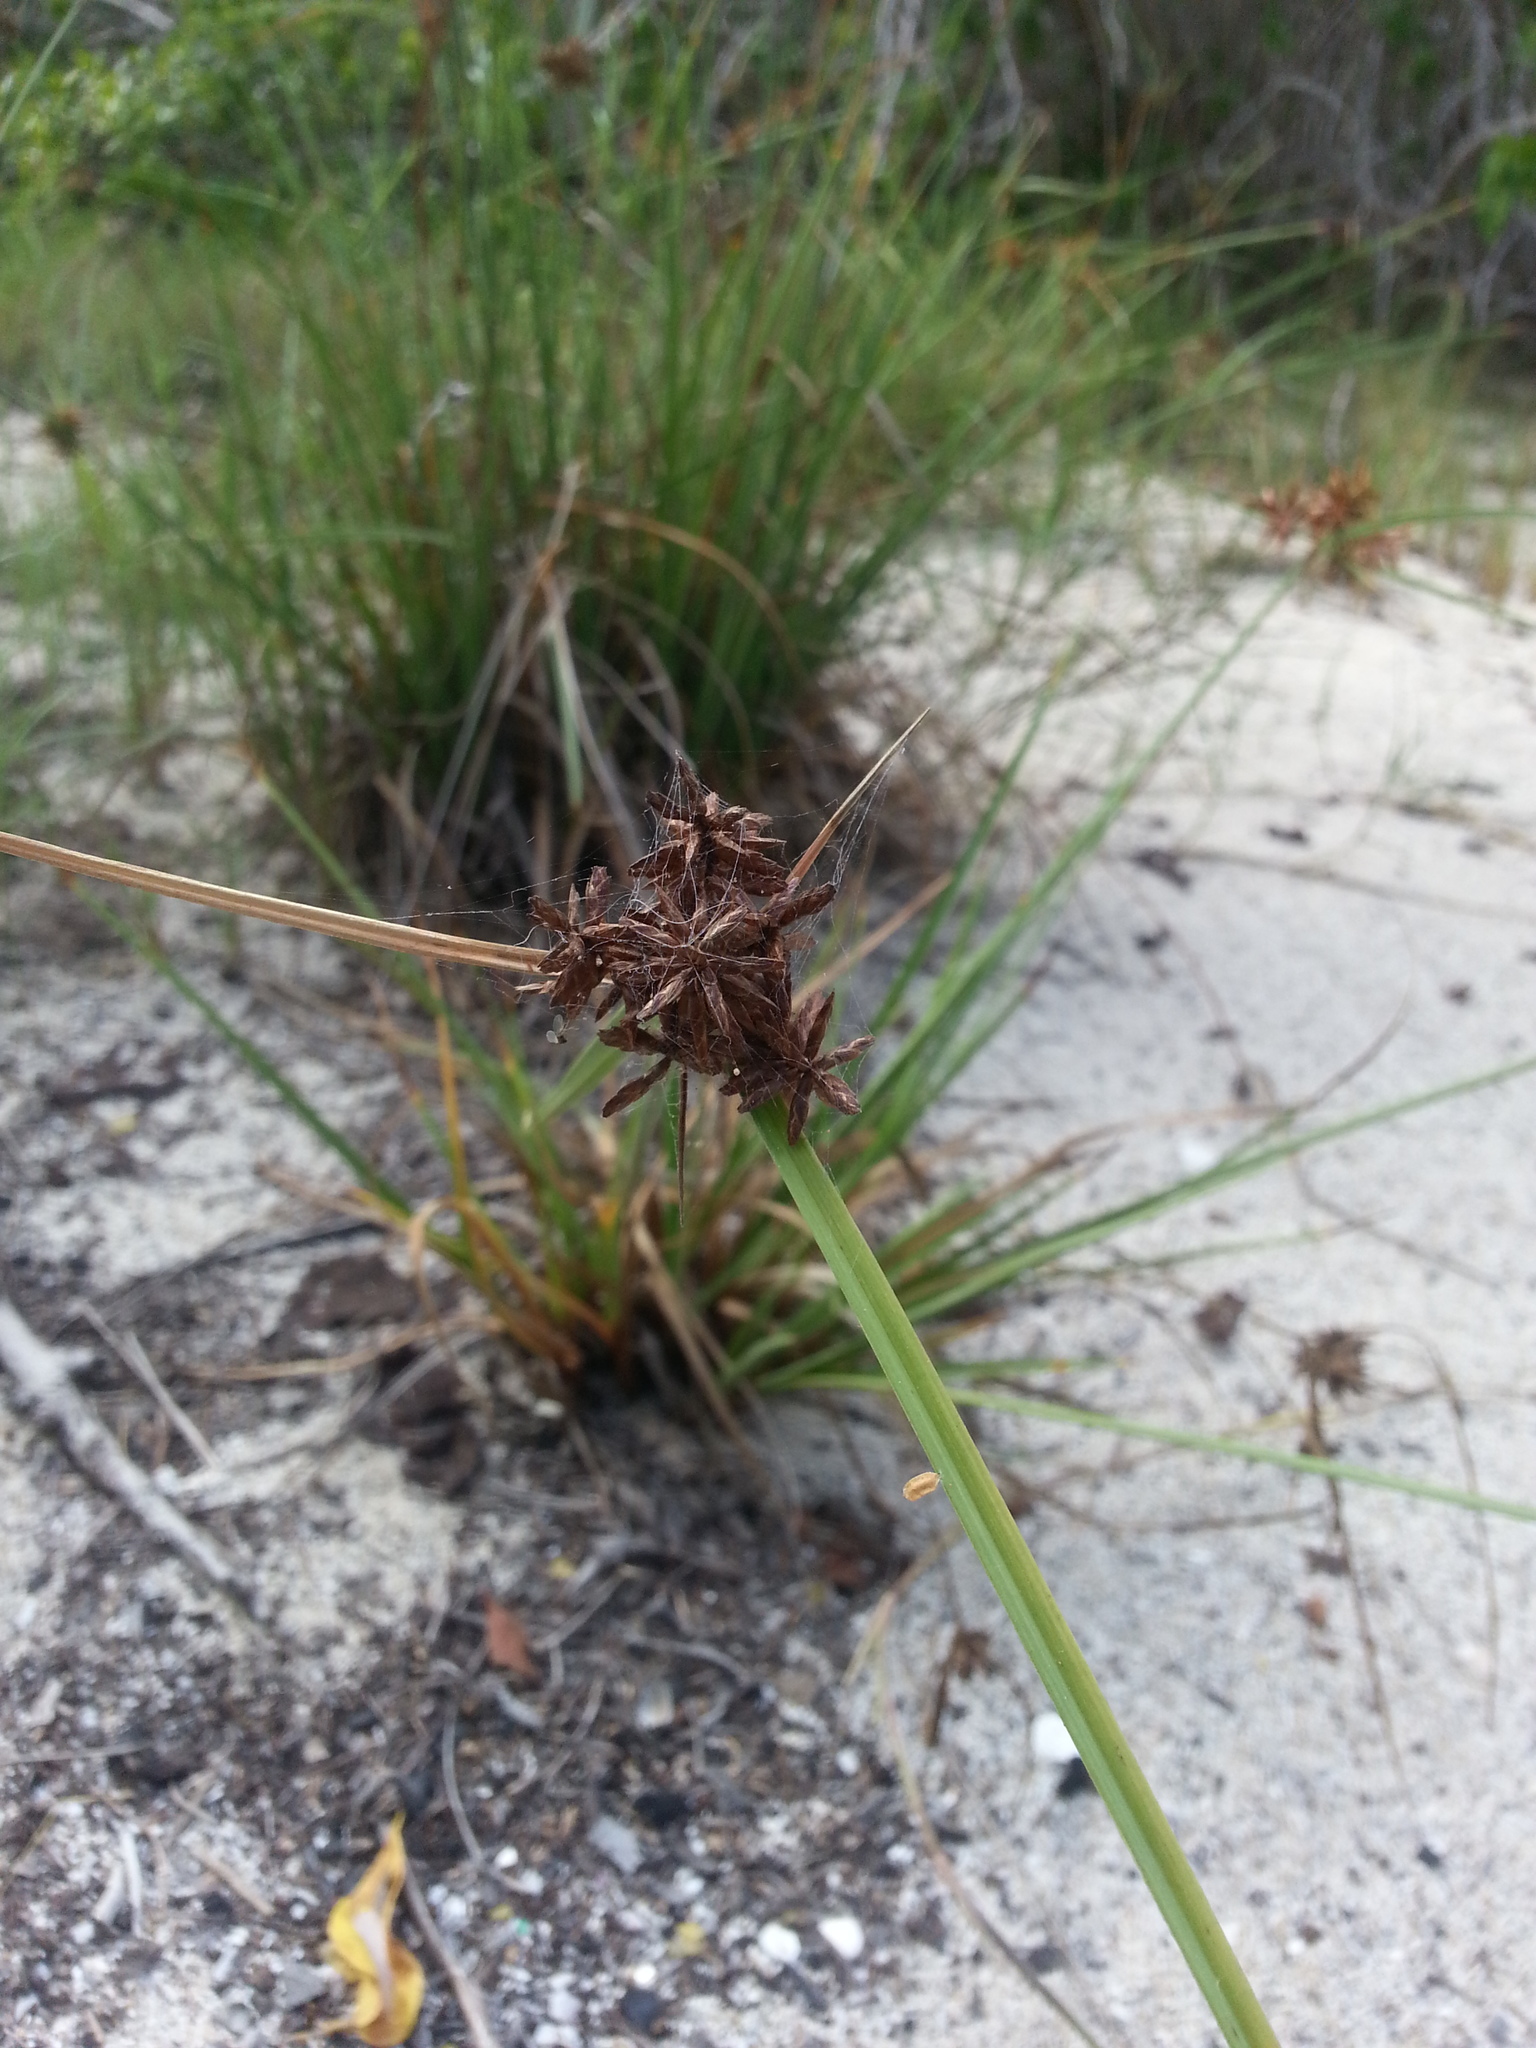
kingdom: Plantae
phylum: Tracheophyta
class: Liliopsida
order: Poales
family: Cyperaceae
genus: Cyperus
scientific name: Cyperus planifolius
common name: Bullgrass
